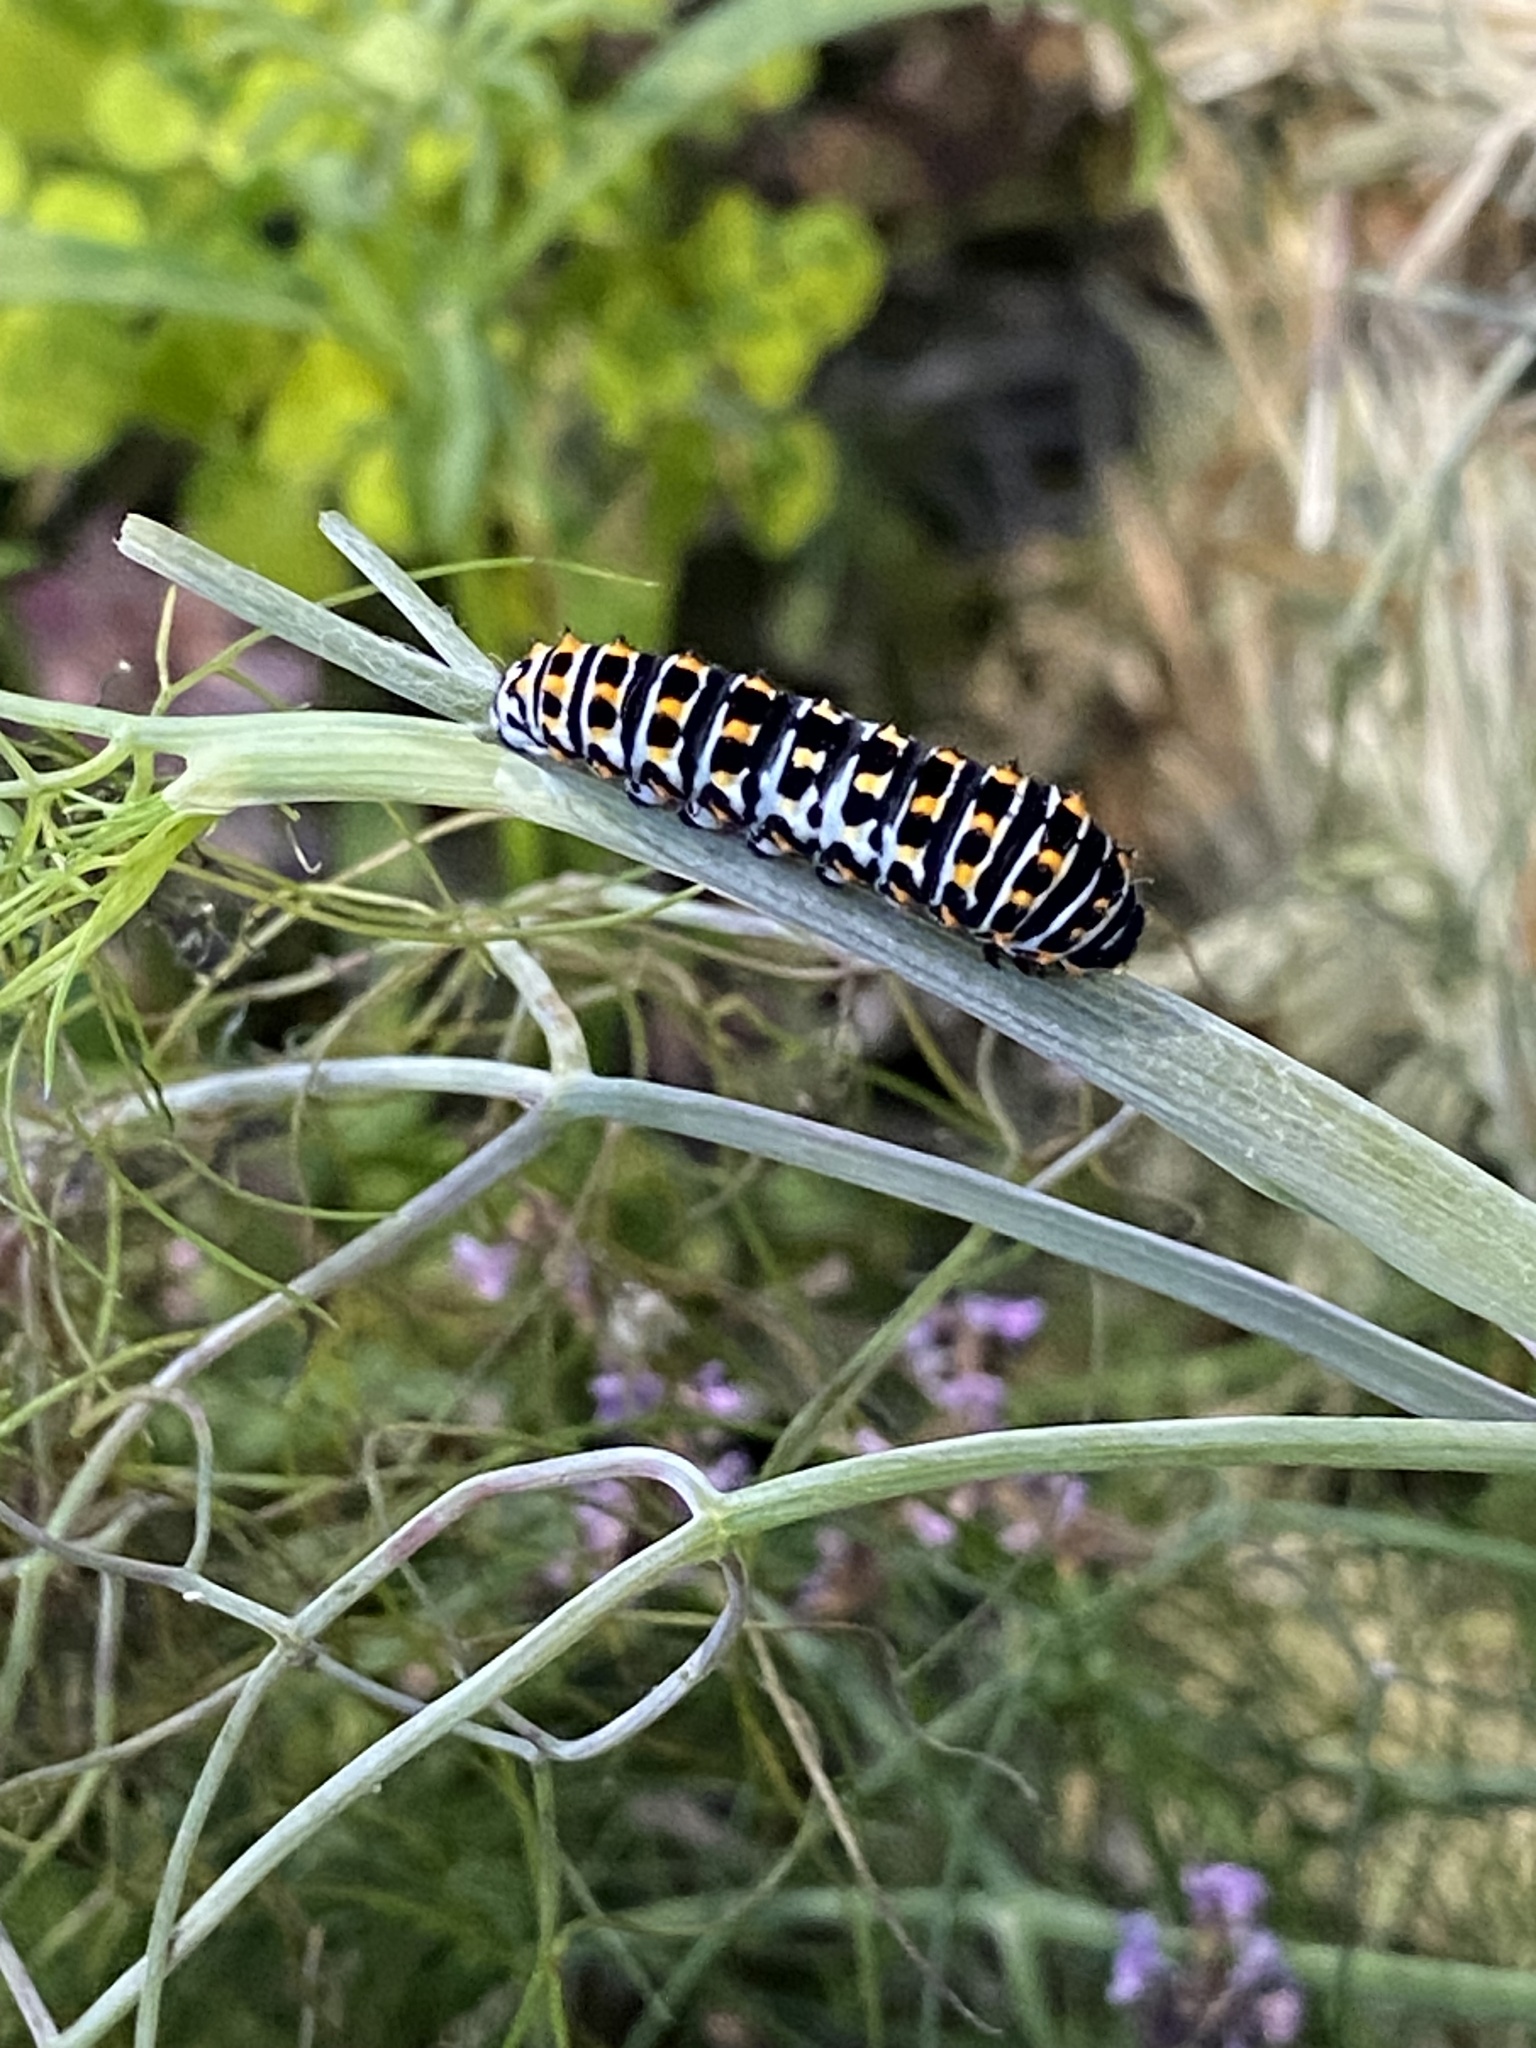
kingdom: Animalia
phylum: Arthropoda
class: Insecta
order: Lepidoptera
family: Papilionidae
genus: Papilio
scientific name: Papilio machaon
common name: Swallowtail
